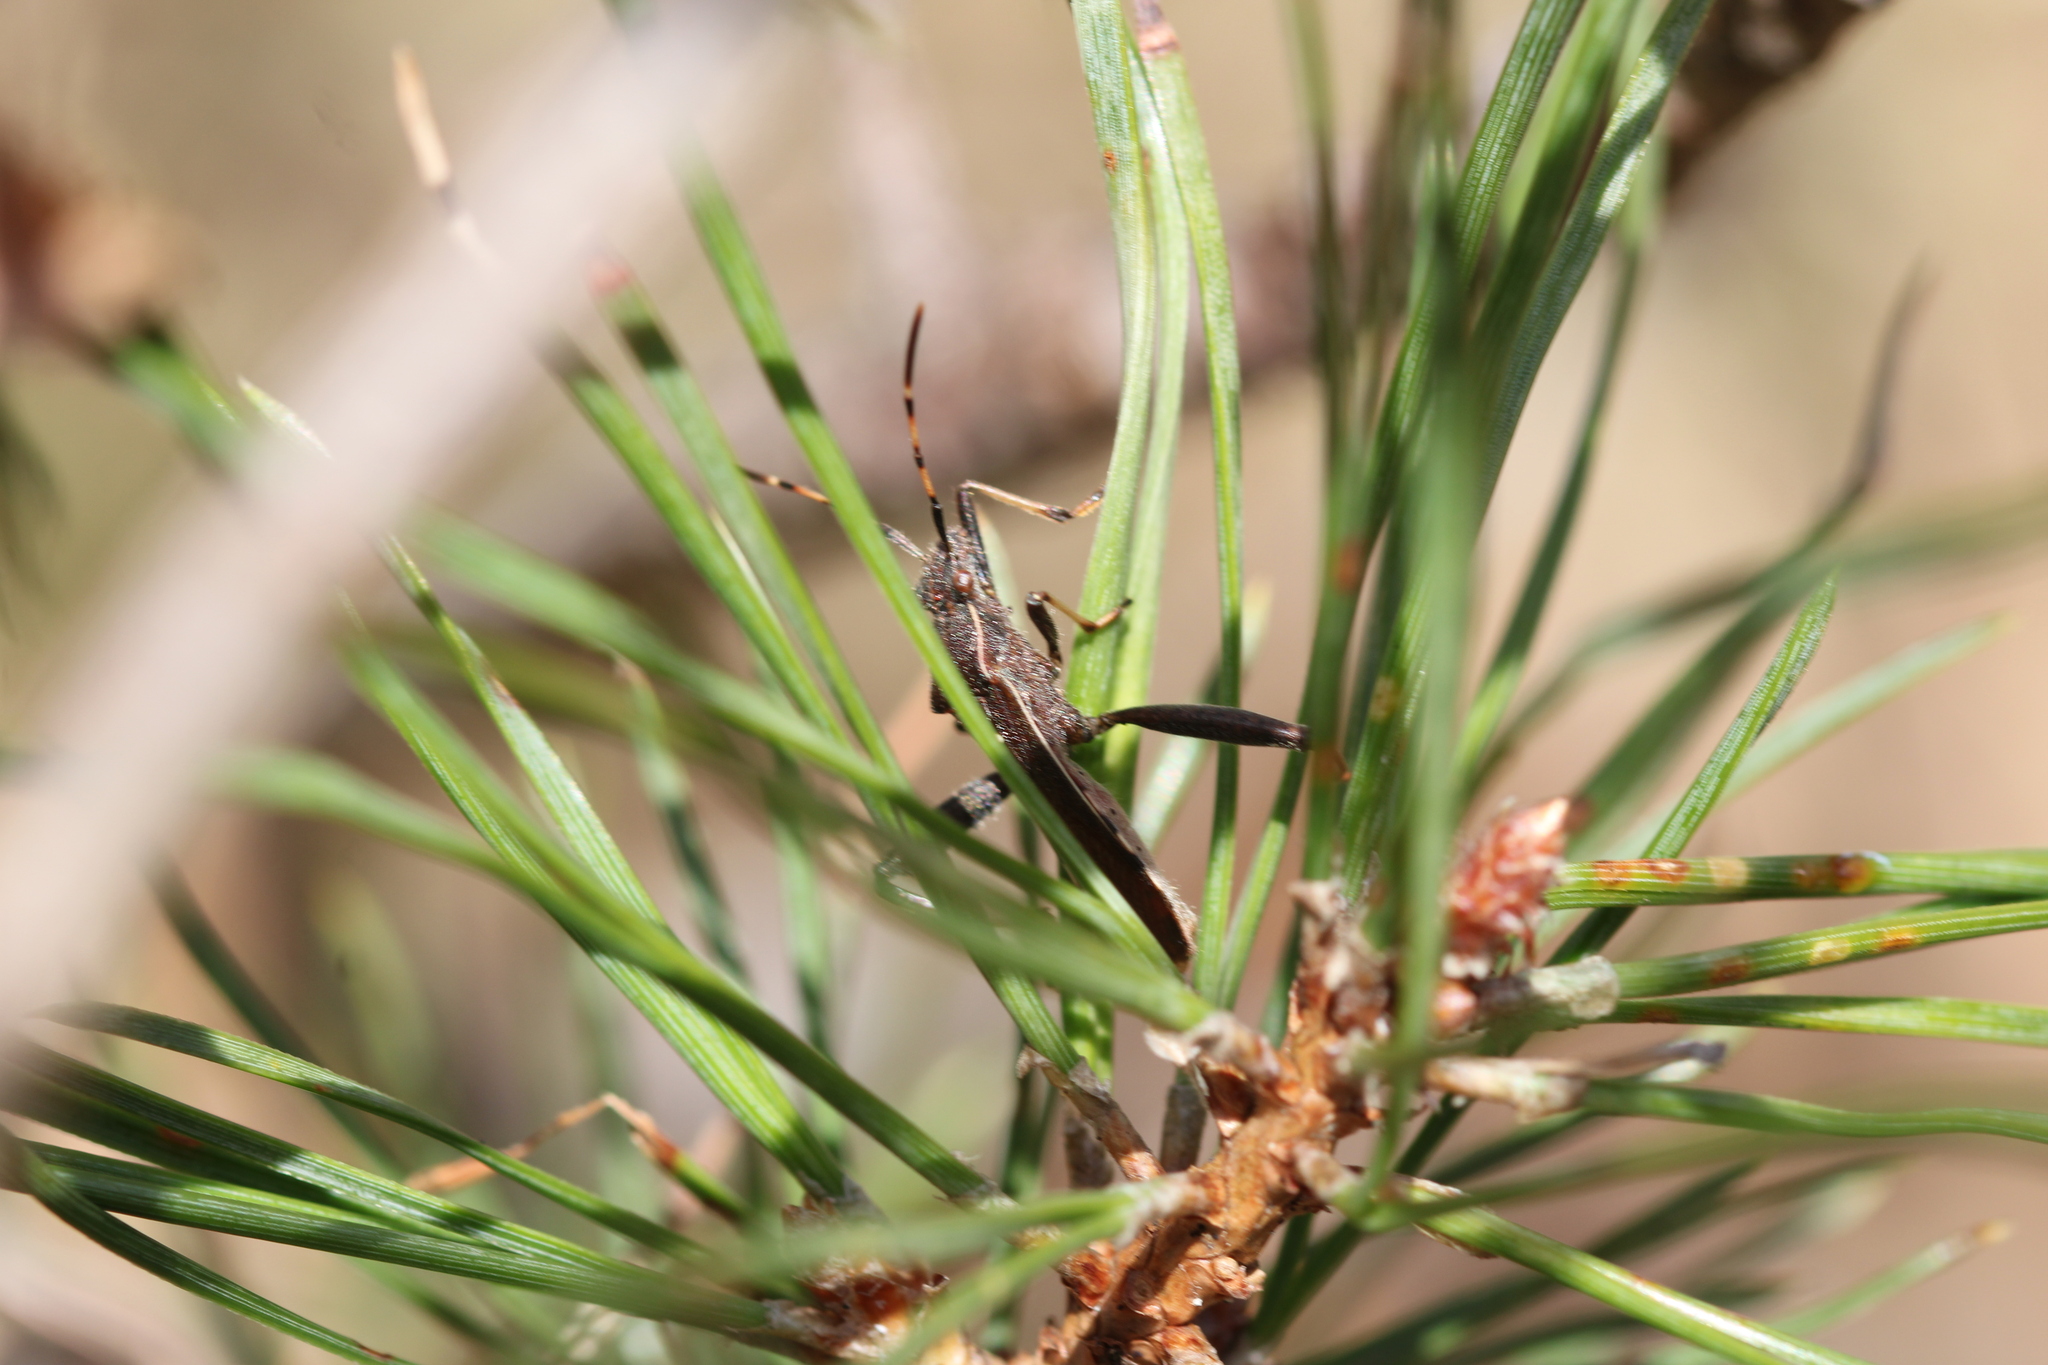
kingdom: Animalia
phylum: Arthropoda
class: Insecta
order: Hemiptera
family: Alydidae
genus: Camptopus
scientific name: Camptopus lateralis
